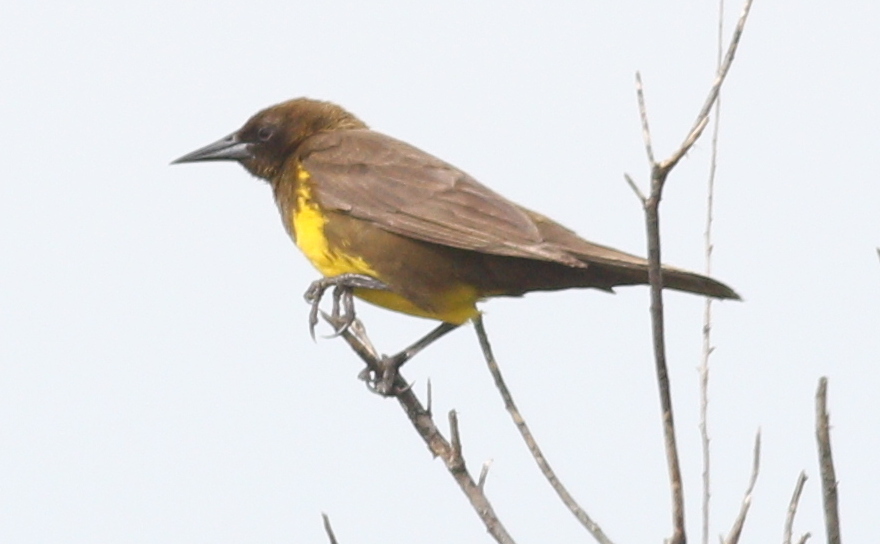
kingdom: Animalia
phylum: Chordata
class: Aves
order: Passeriformes
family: Icteridae
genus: Pseudoleistes
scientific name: Pseudoleistes virescens
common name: Brown-and-yellow marshbird
